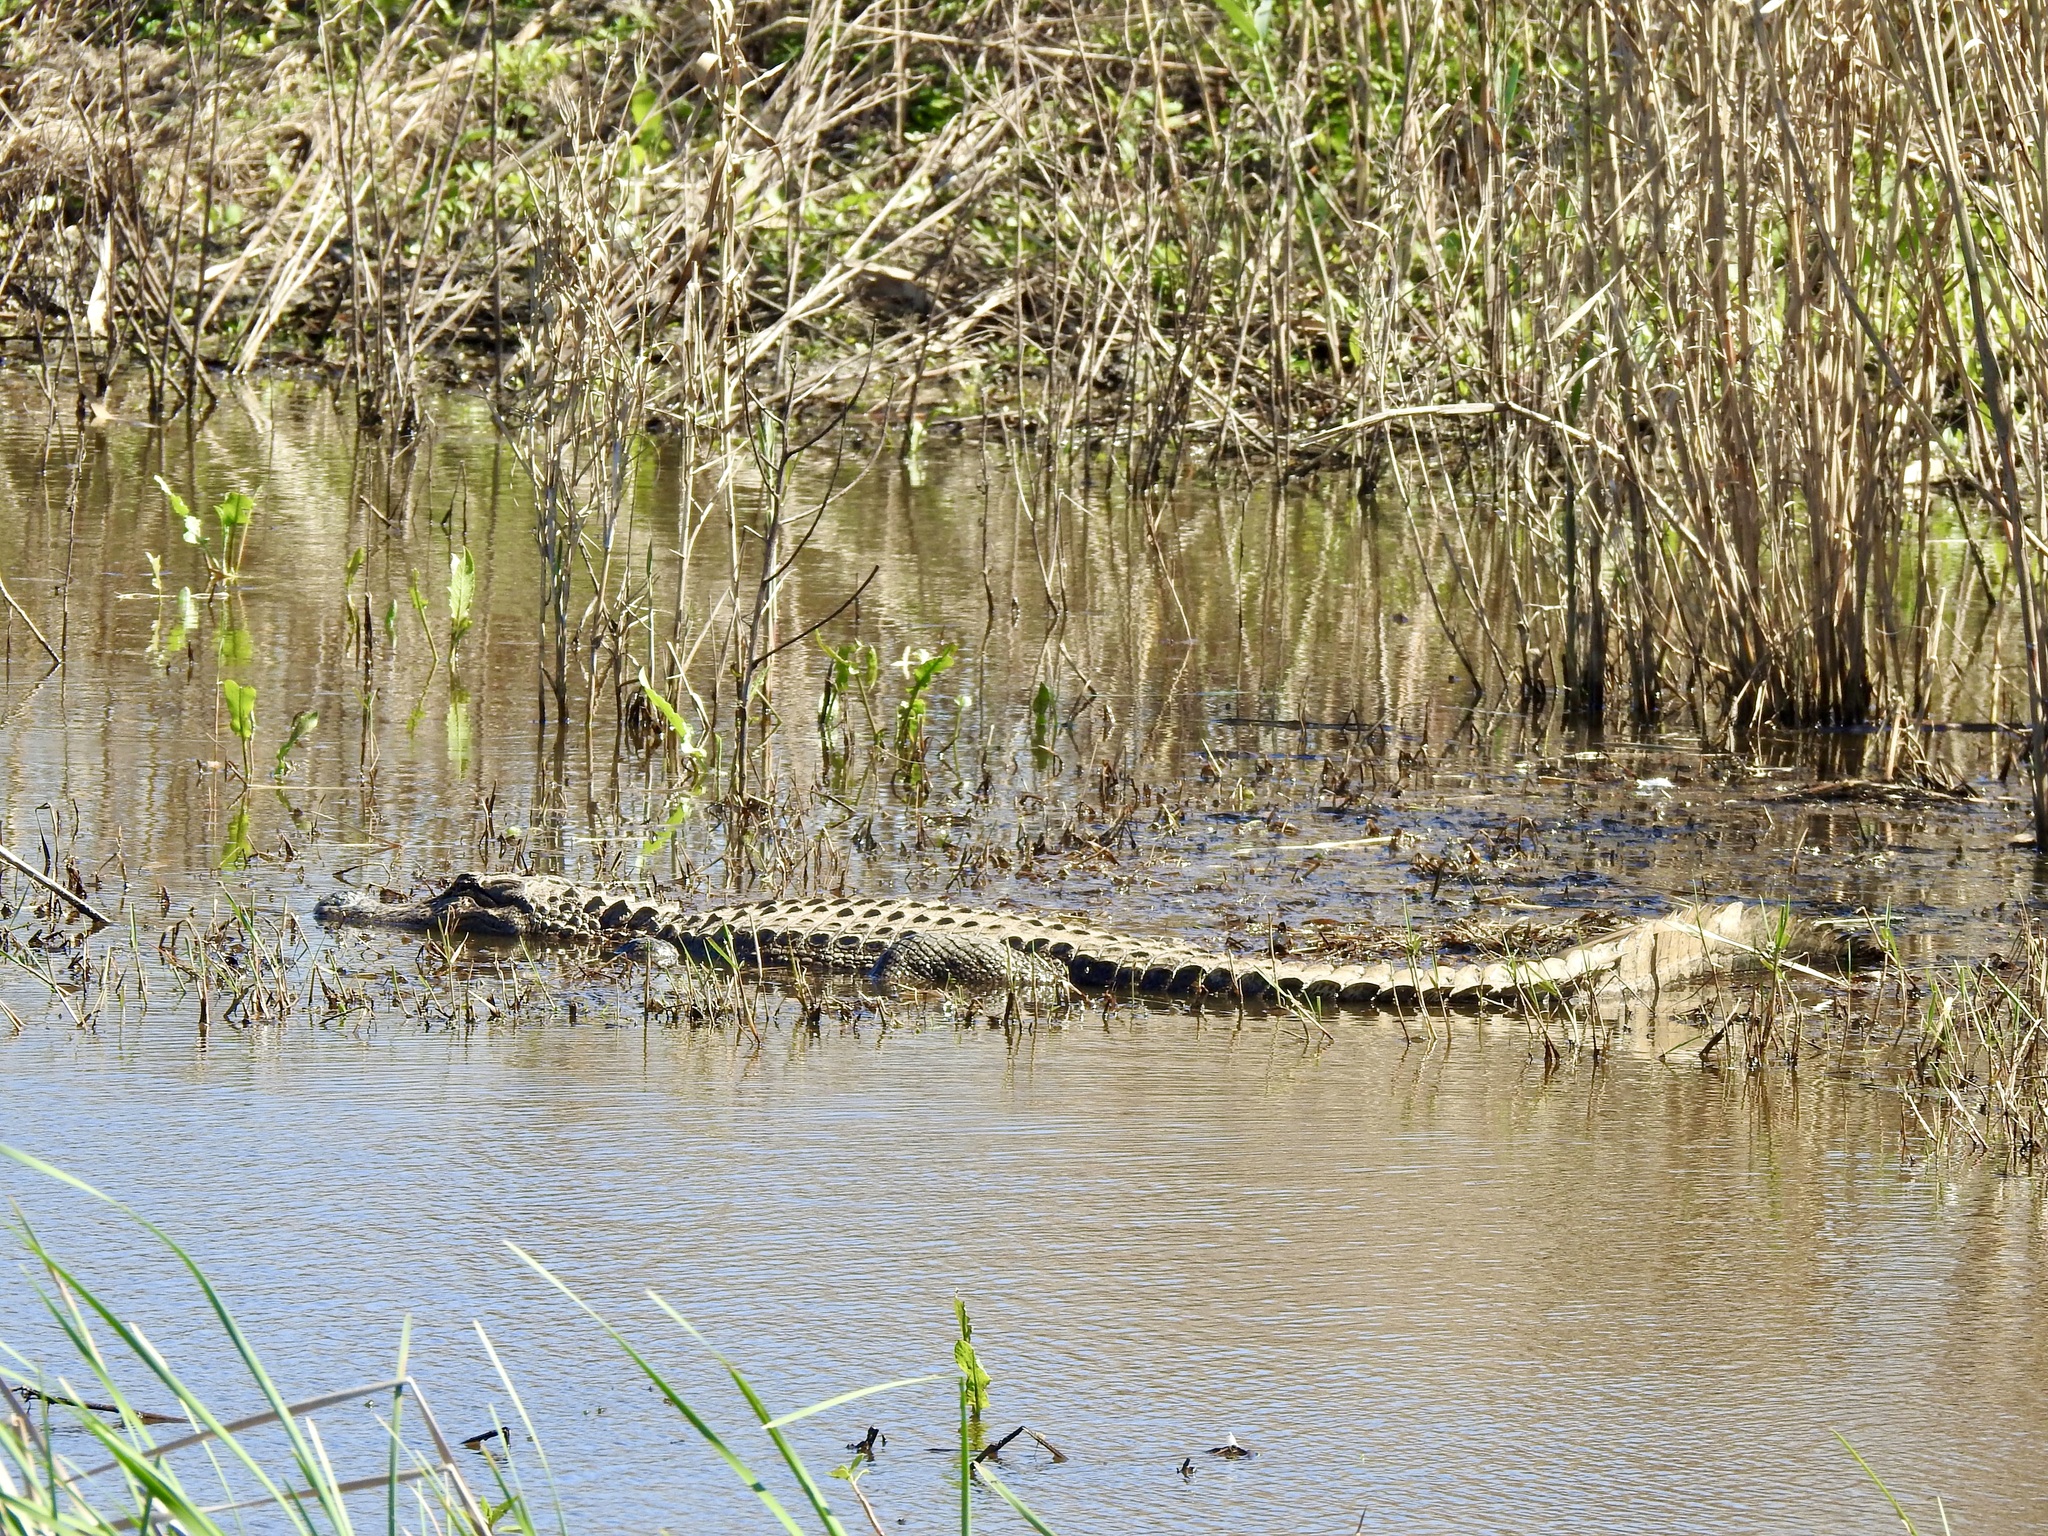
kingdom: Animalia
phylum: Chordata
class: Crocodylia
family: Alligatoridae
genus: Alligator
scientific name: Alligator mississippiensis
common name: American alligator
